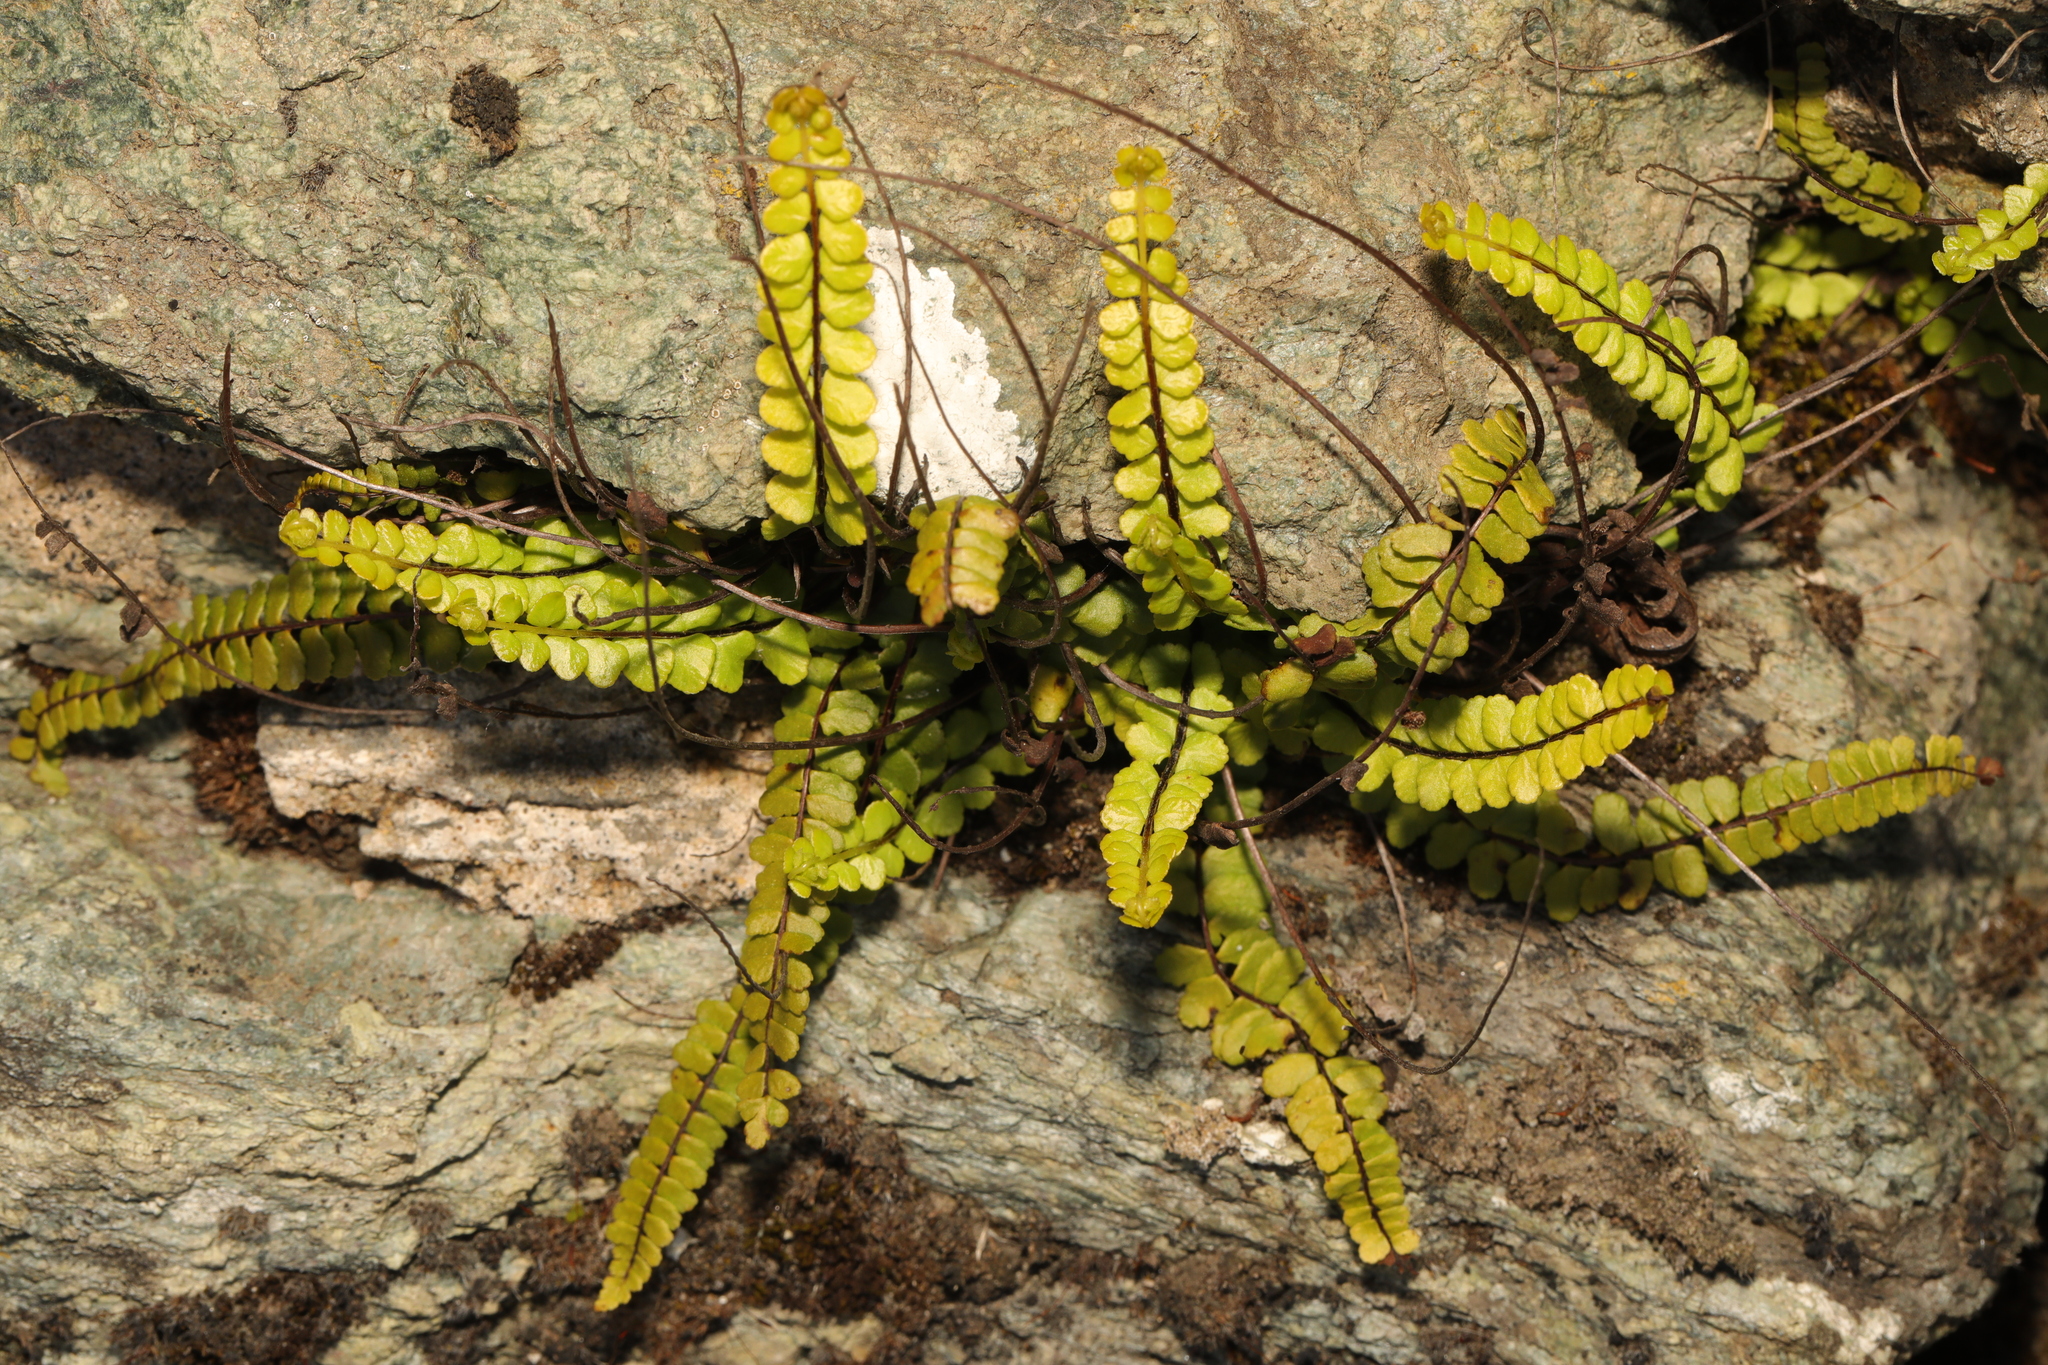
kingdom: Plantae
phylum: Tracheophyta
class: Polypodiopsida
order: Polypodiales
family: Aspleniaceae
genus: Asplenium
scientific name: Asplenium trichomanes
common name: Maidenhair spleenwort
